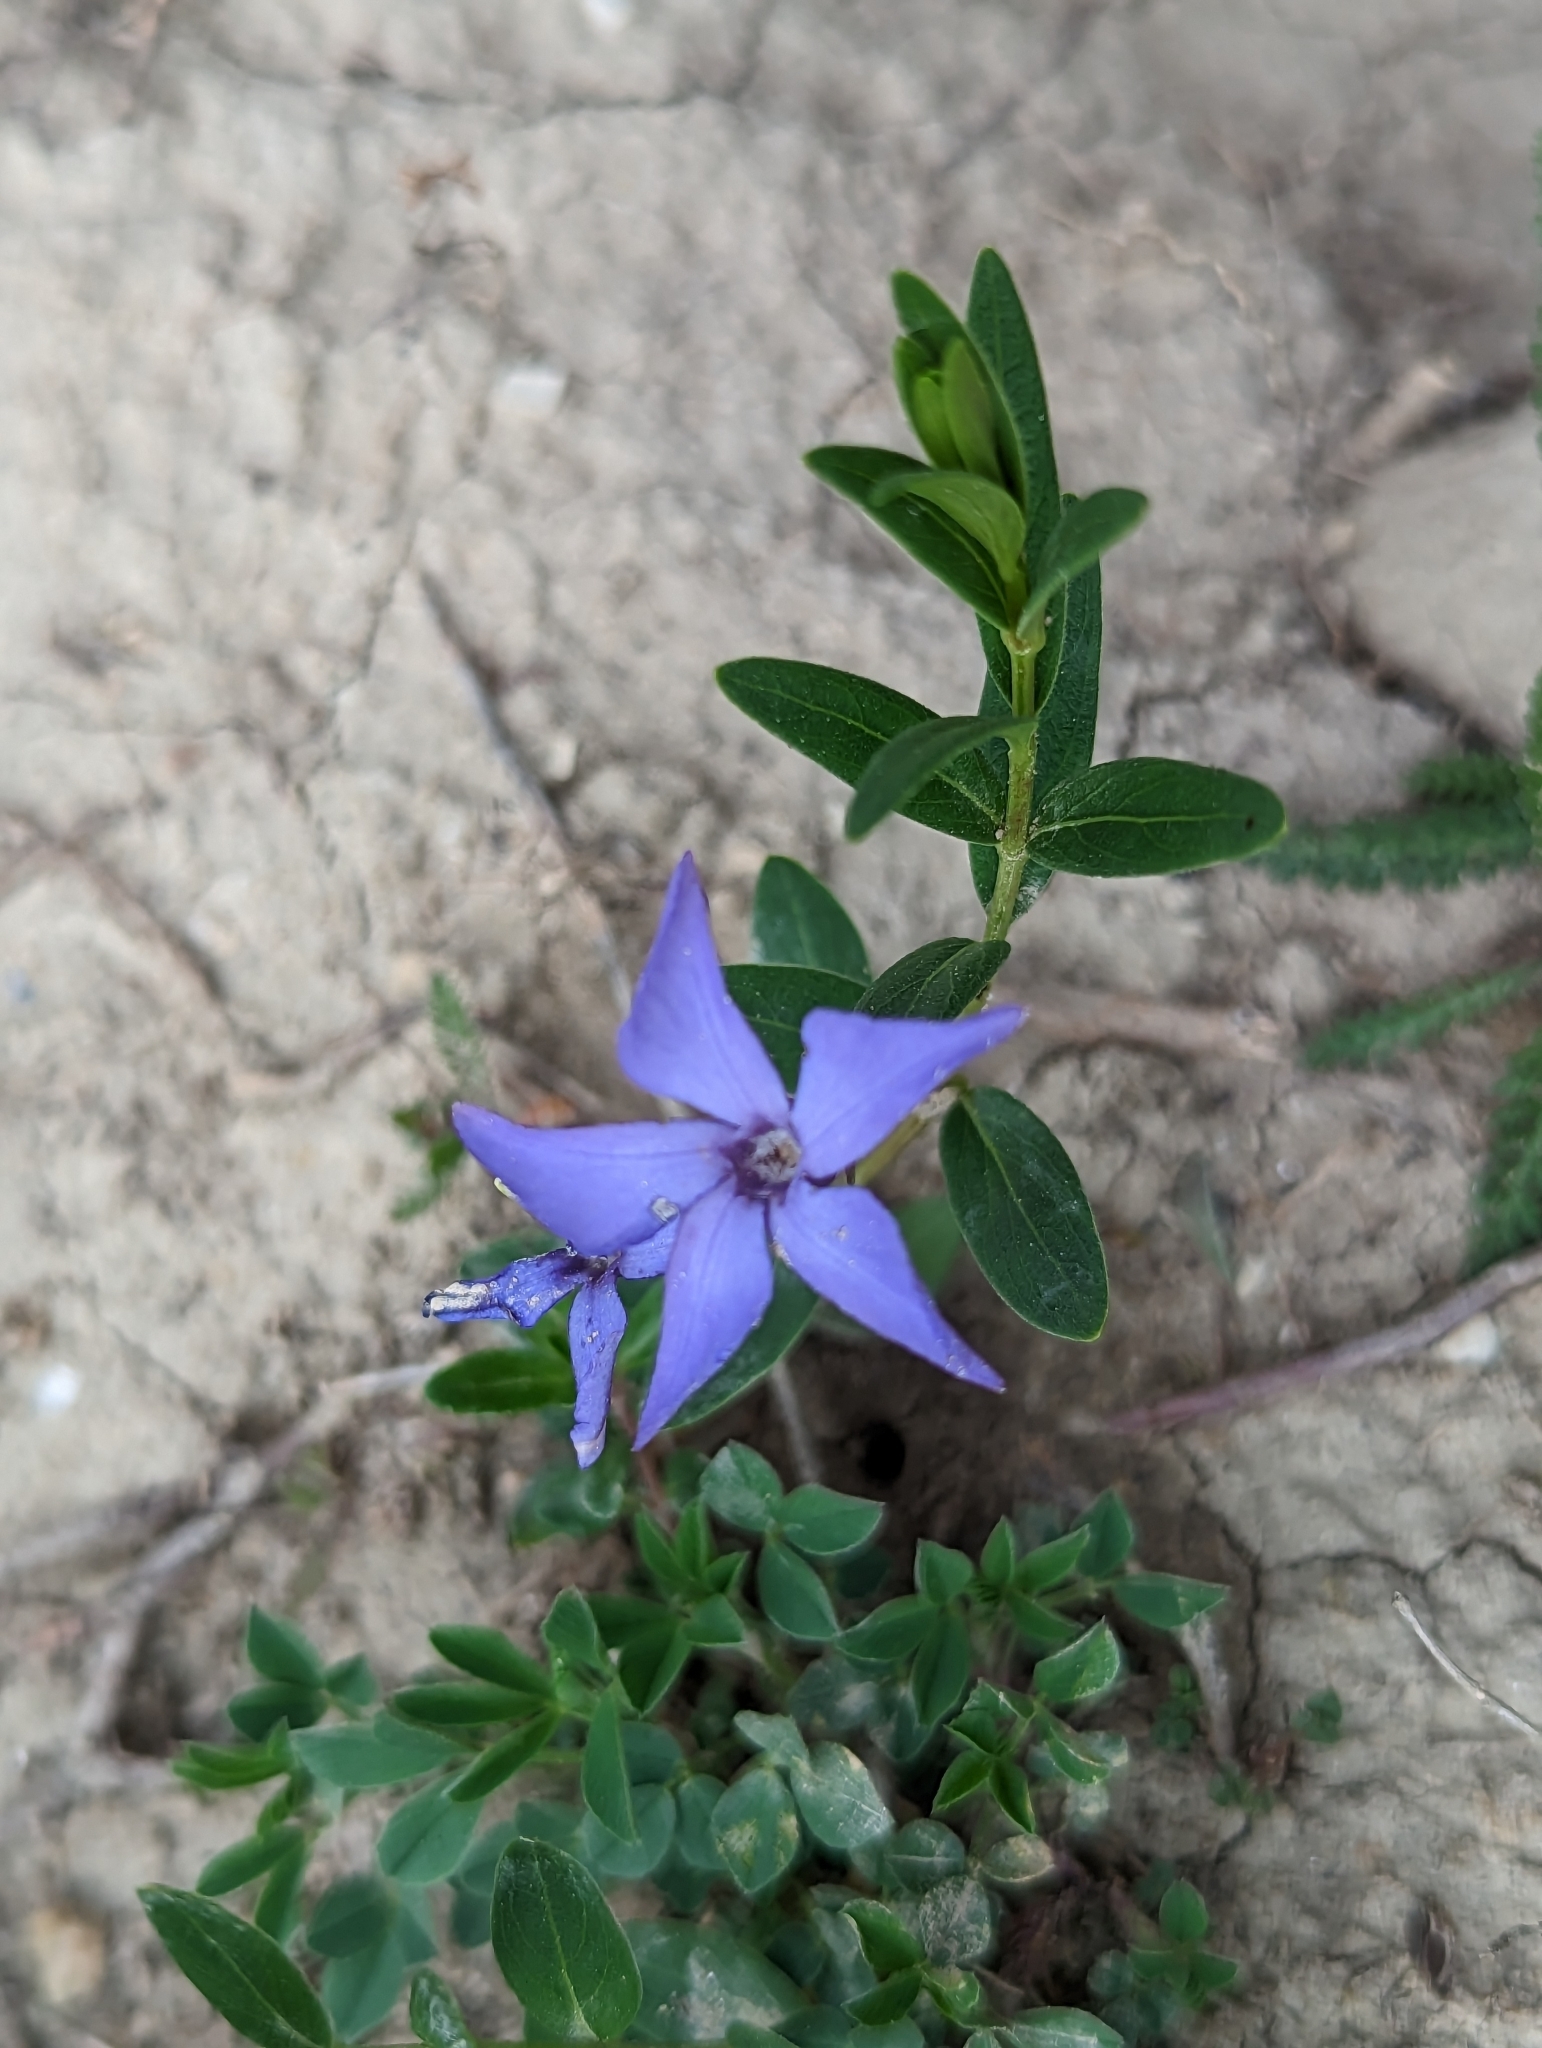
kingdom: Plantae
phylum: Tracheophyta
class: Magnoliopsida
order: Gentianales
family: Apocynaceae
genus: Vinca
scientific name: Vinca herbacea
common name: Herbaceous periwinkle
